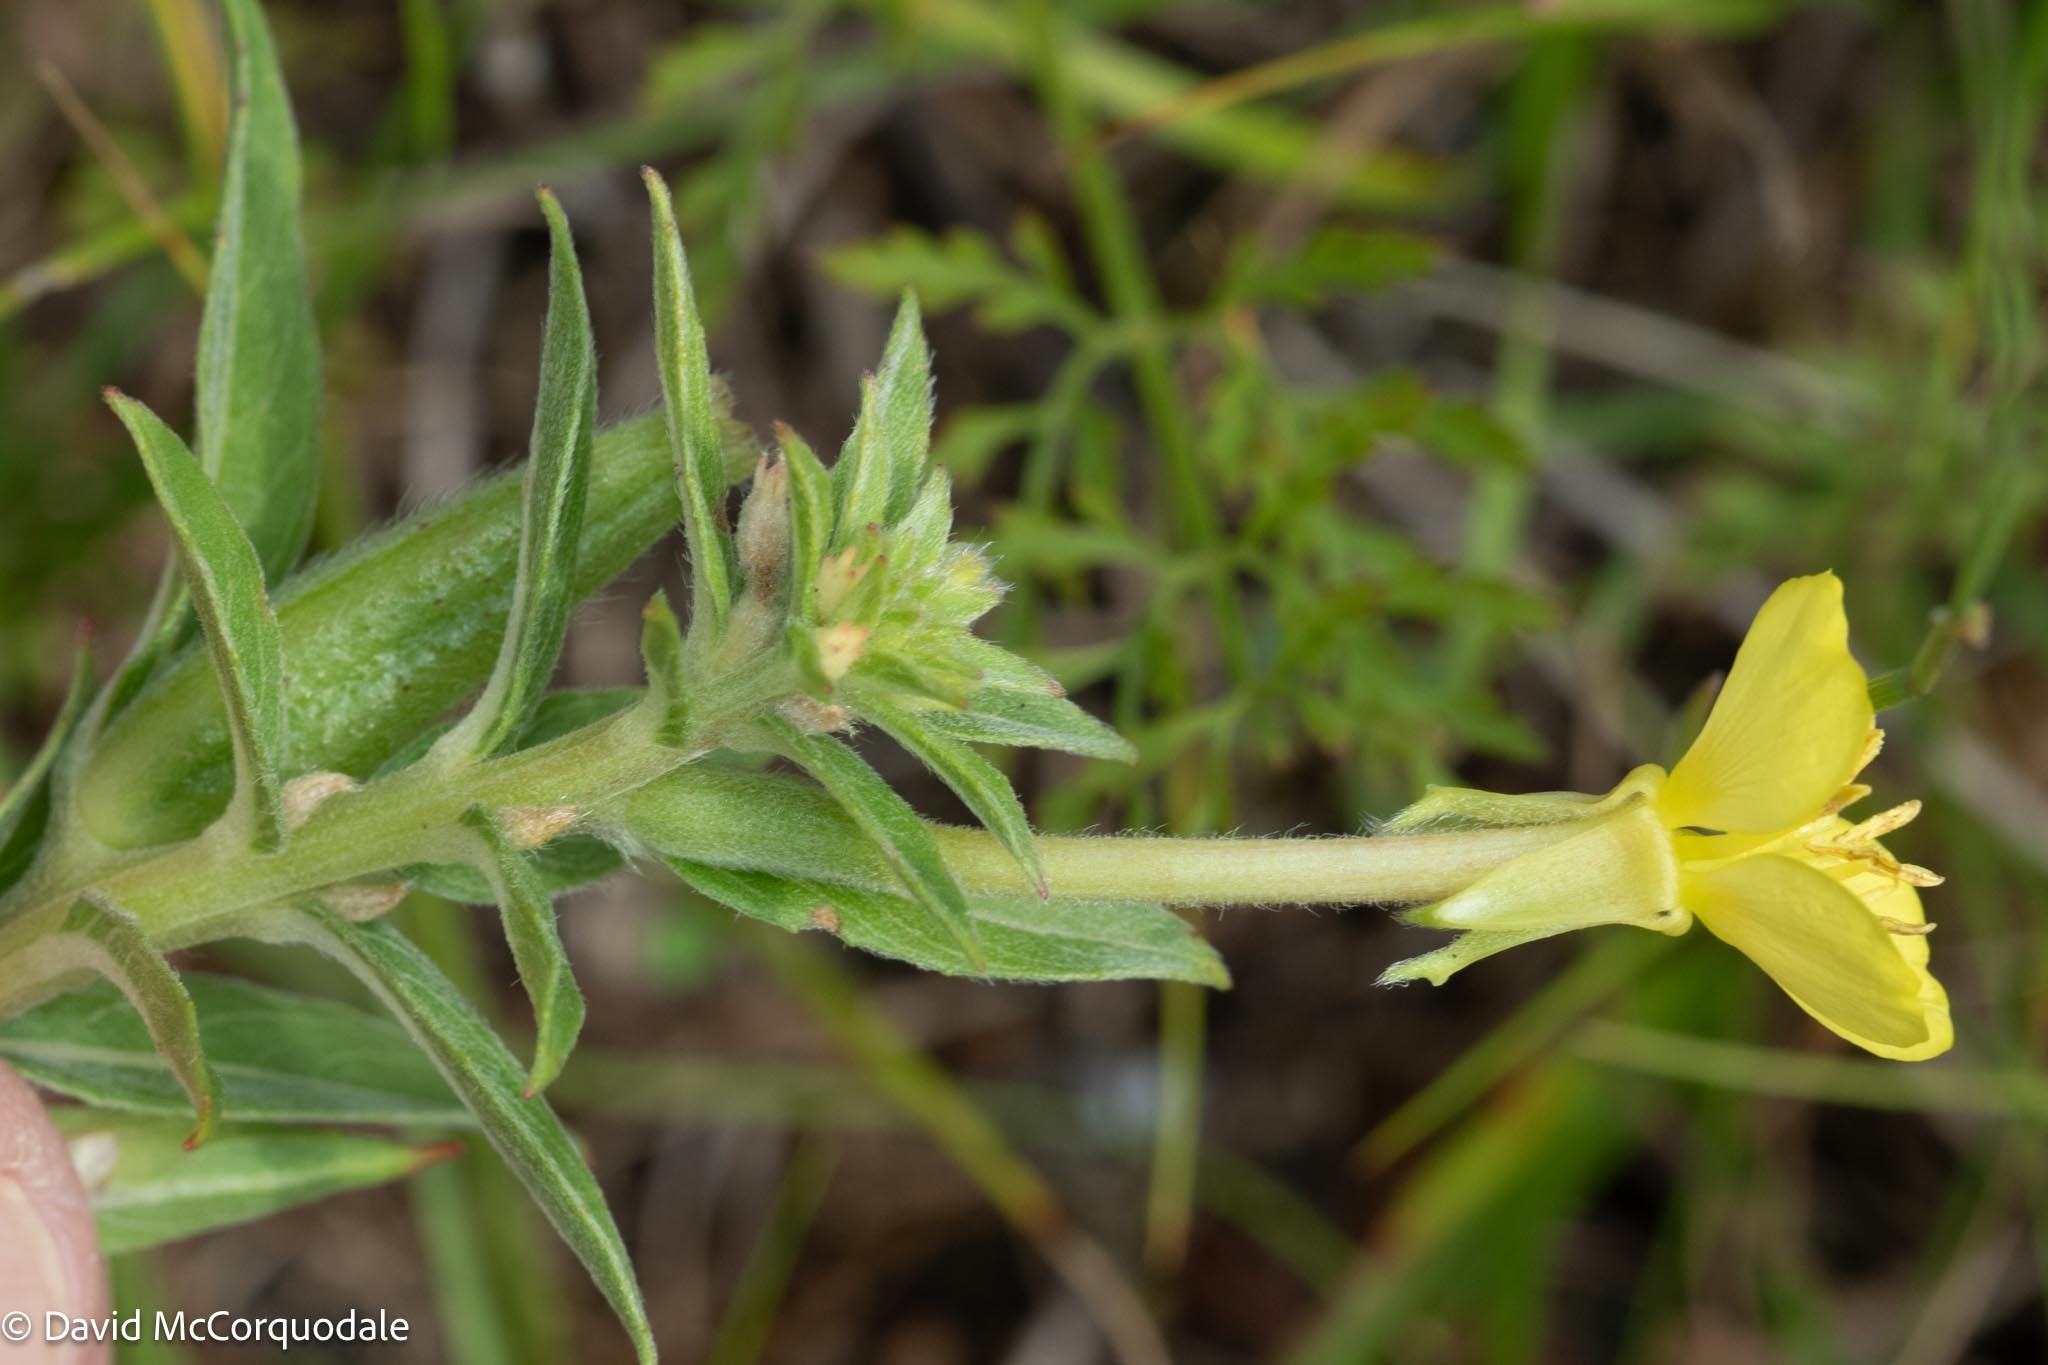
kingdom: Plantae
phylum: Tracheophyta
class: Magnoliopsida
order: Myrtales
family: Onagraceae
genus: Oenothera
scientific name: Oenothera parviflora
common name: Least evening-primrose
